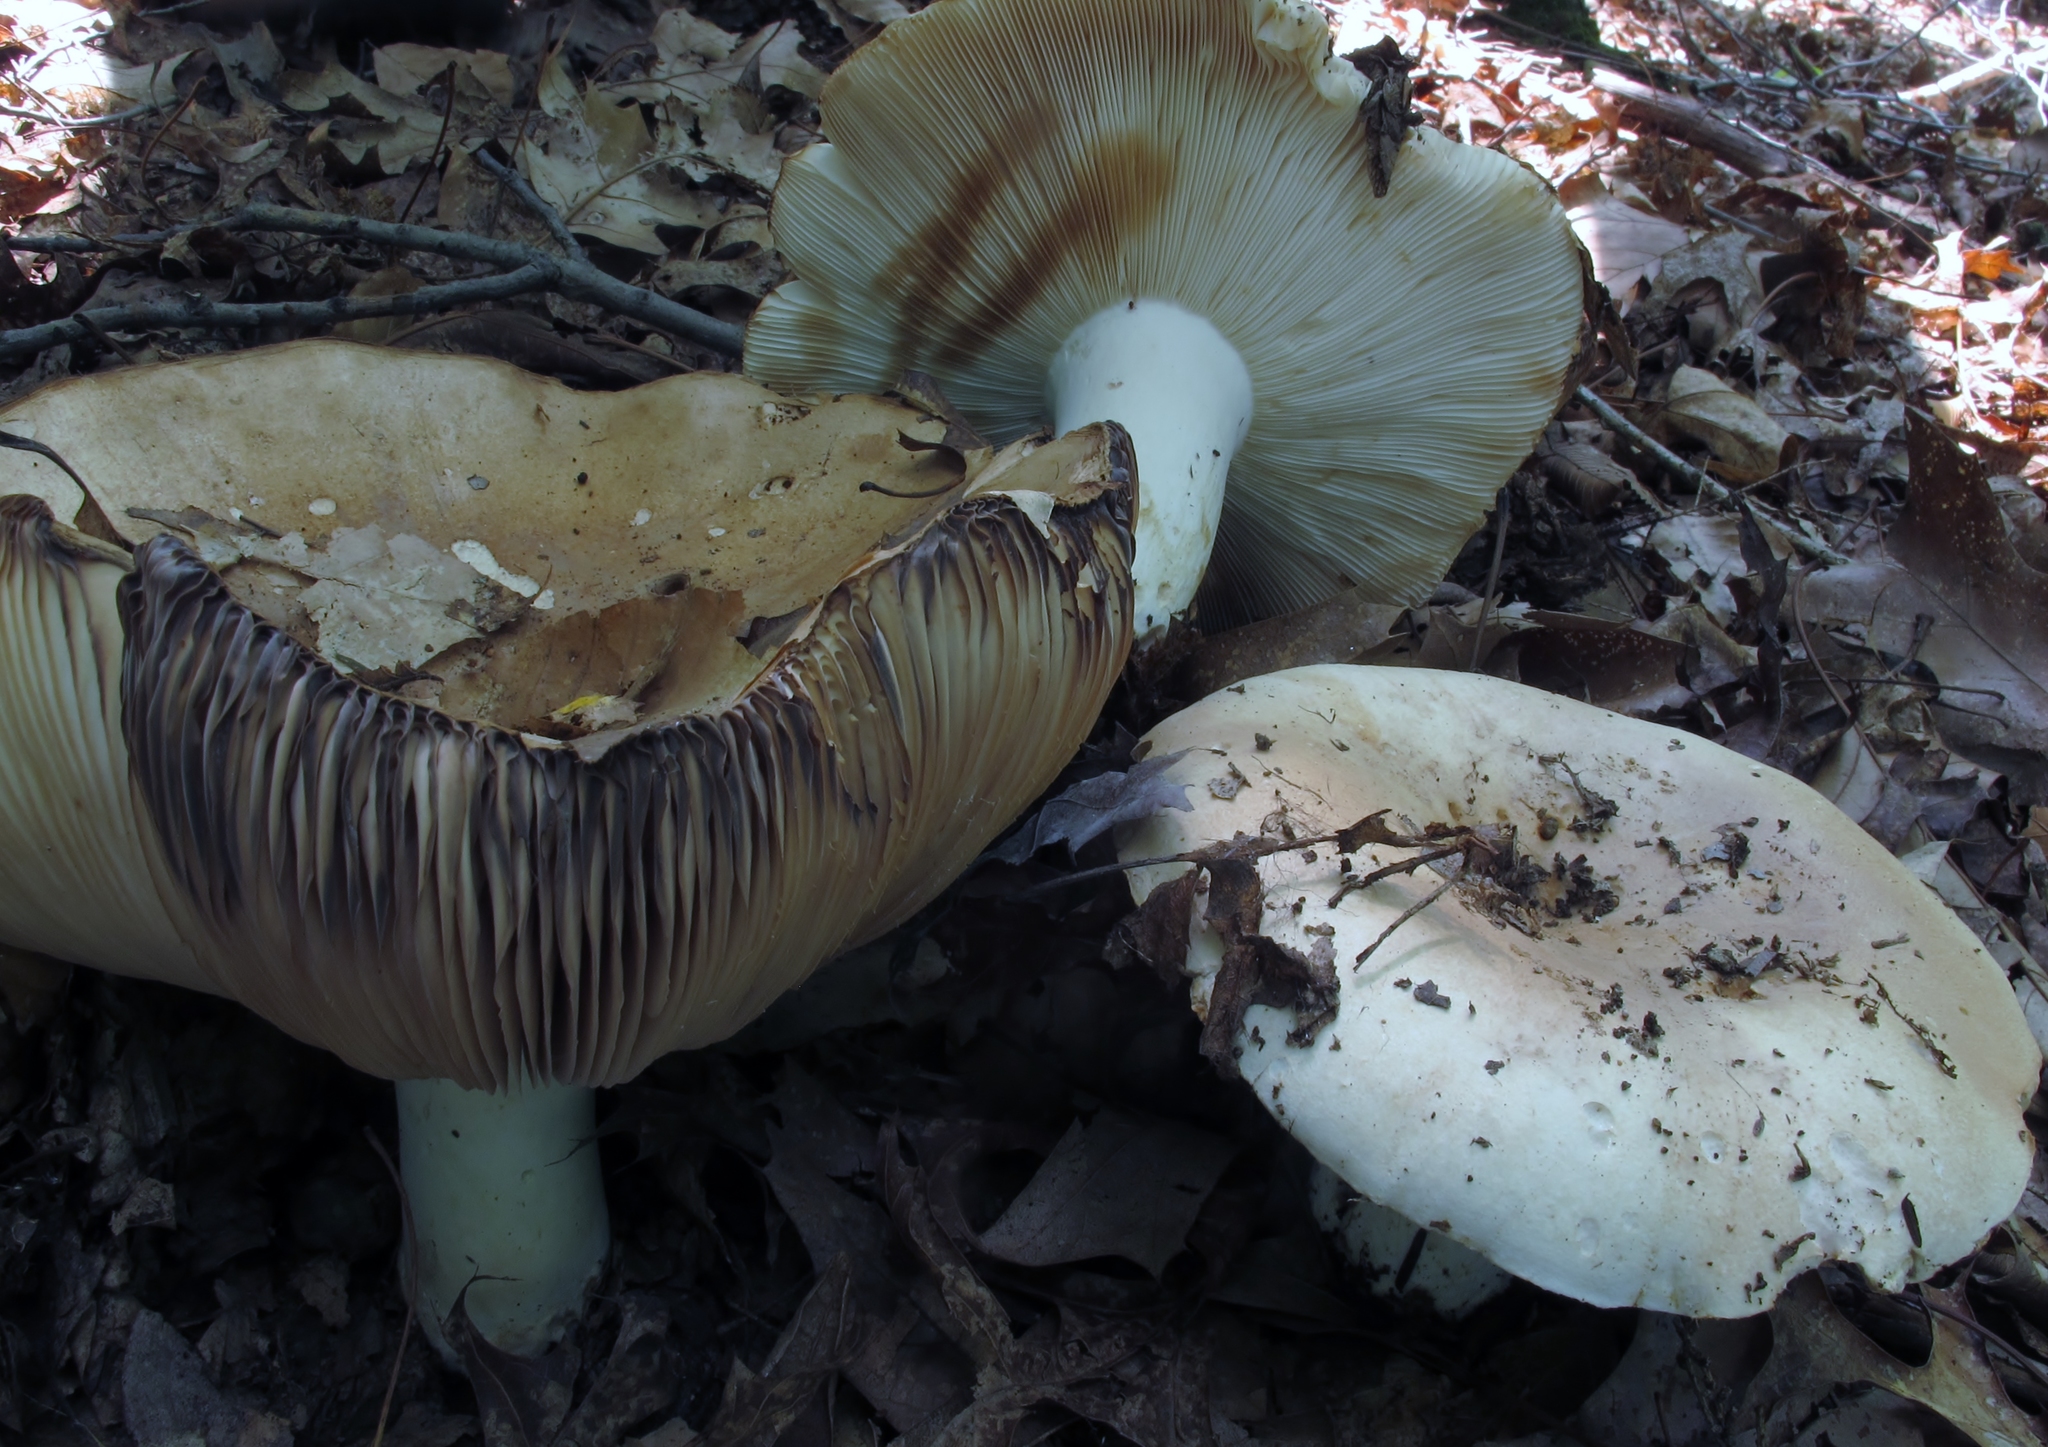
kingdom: Fungi
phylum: Basidiomycota
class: Agaricomycetes
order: Russulales
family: Russulaceae
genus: Russula
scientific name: Russula compacta
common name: Fishbiscuit russula
